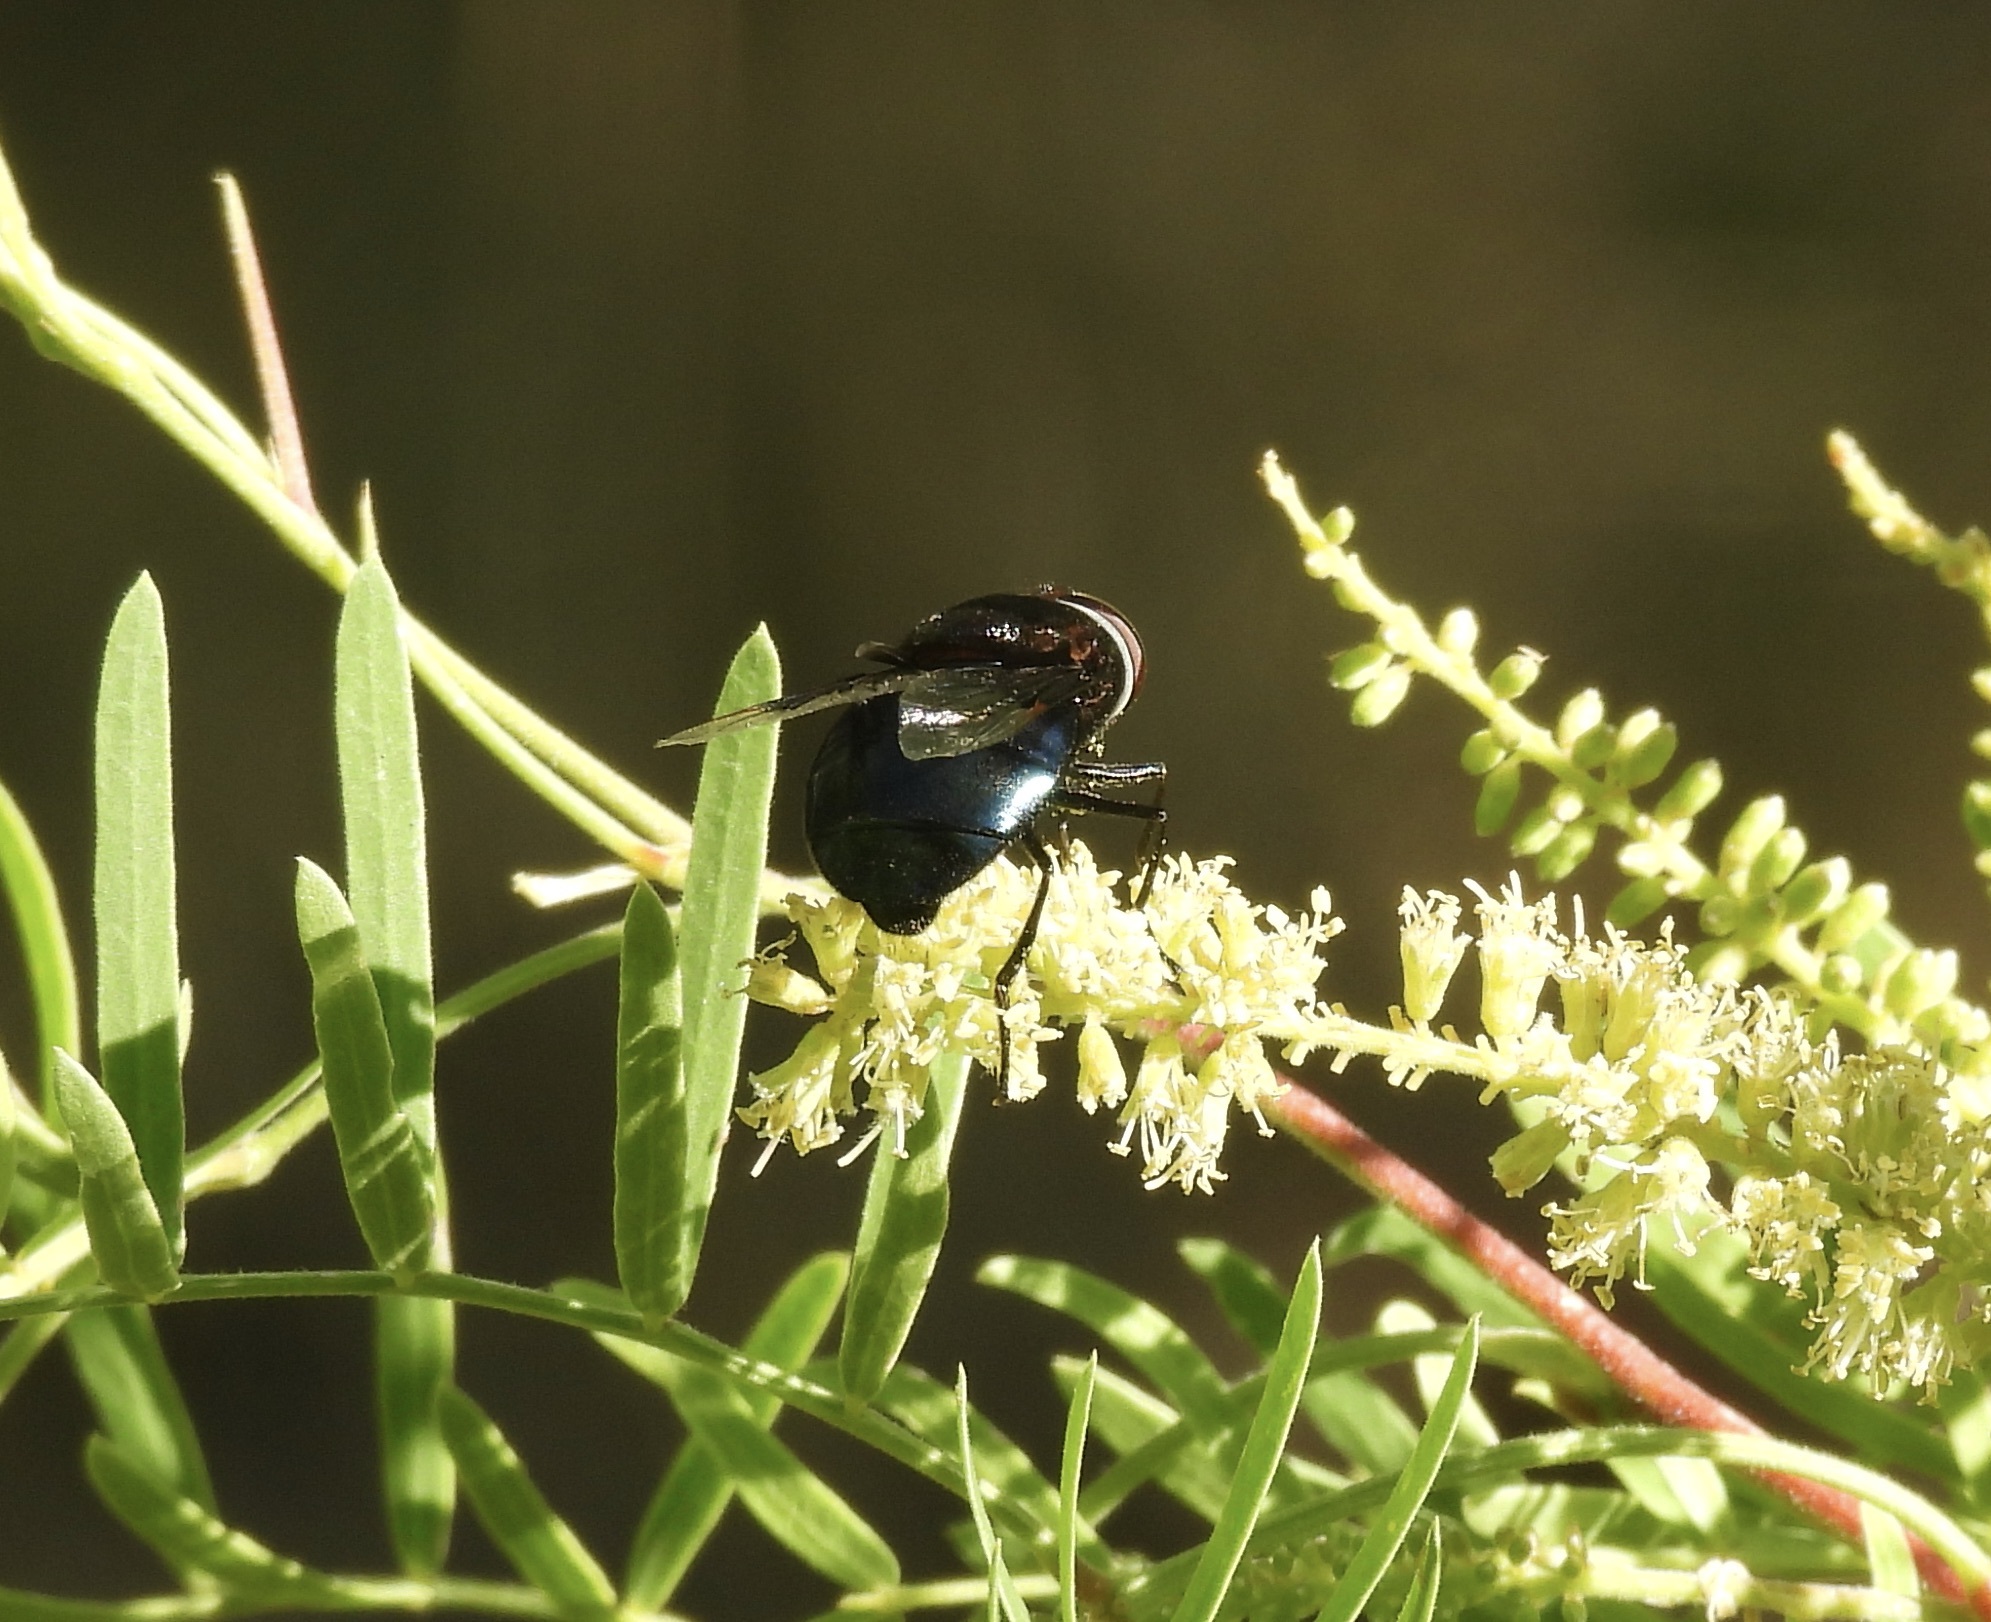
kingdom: Animalia
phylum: Arthropoda
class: Insecta
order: Diptera
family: Syrphidae
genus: Copestylum
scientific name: Copestylum mexicanum
